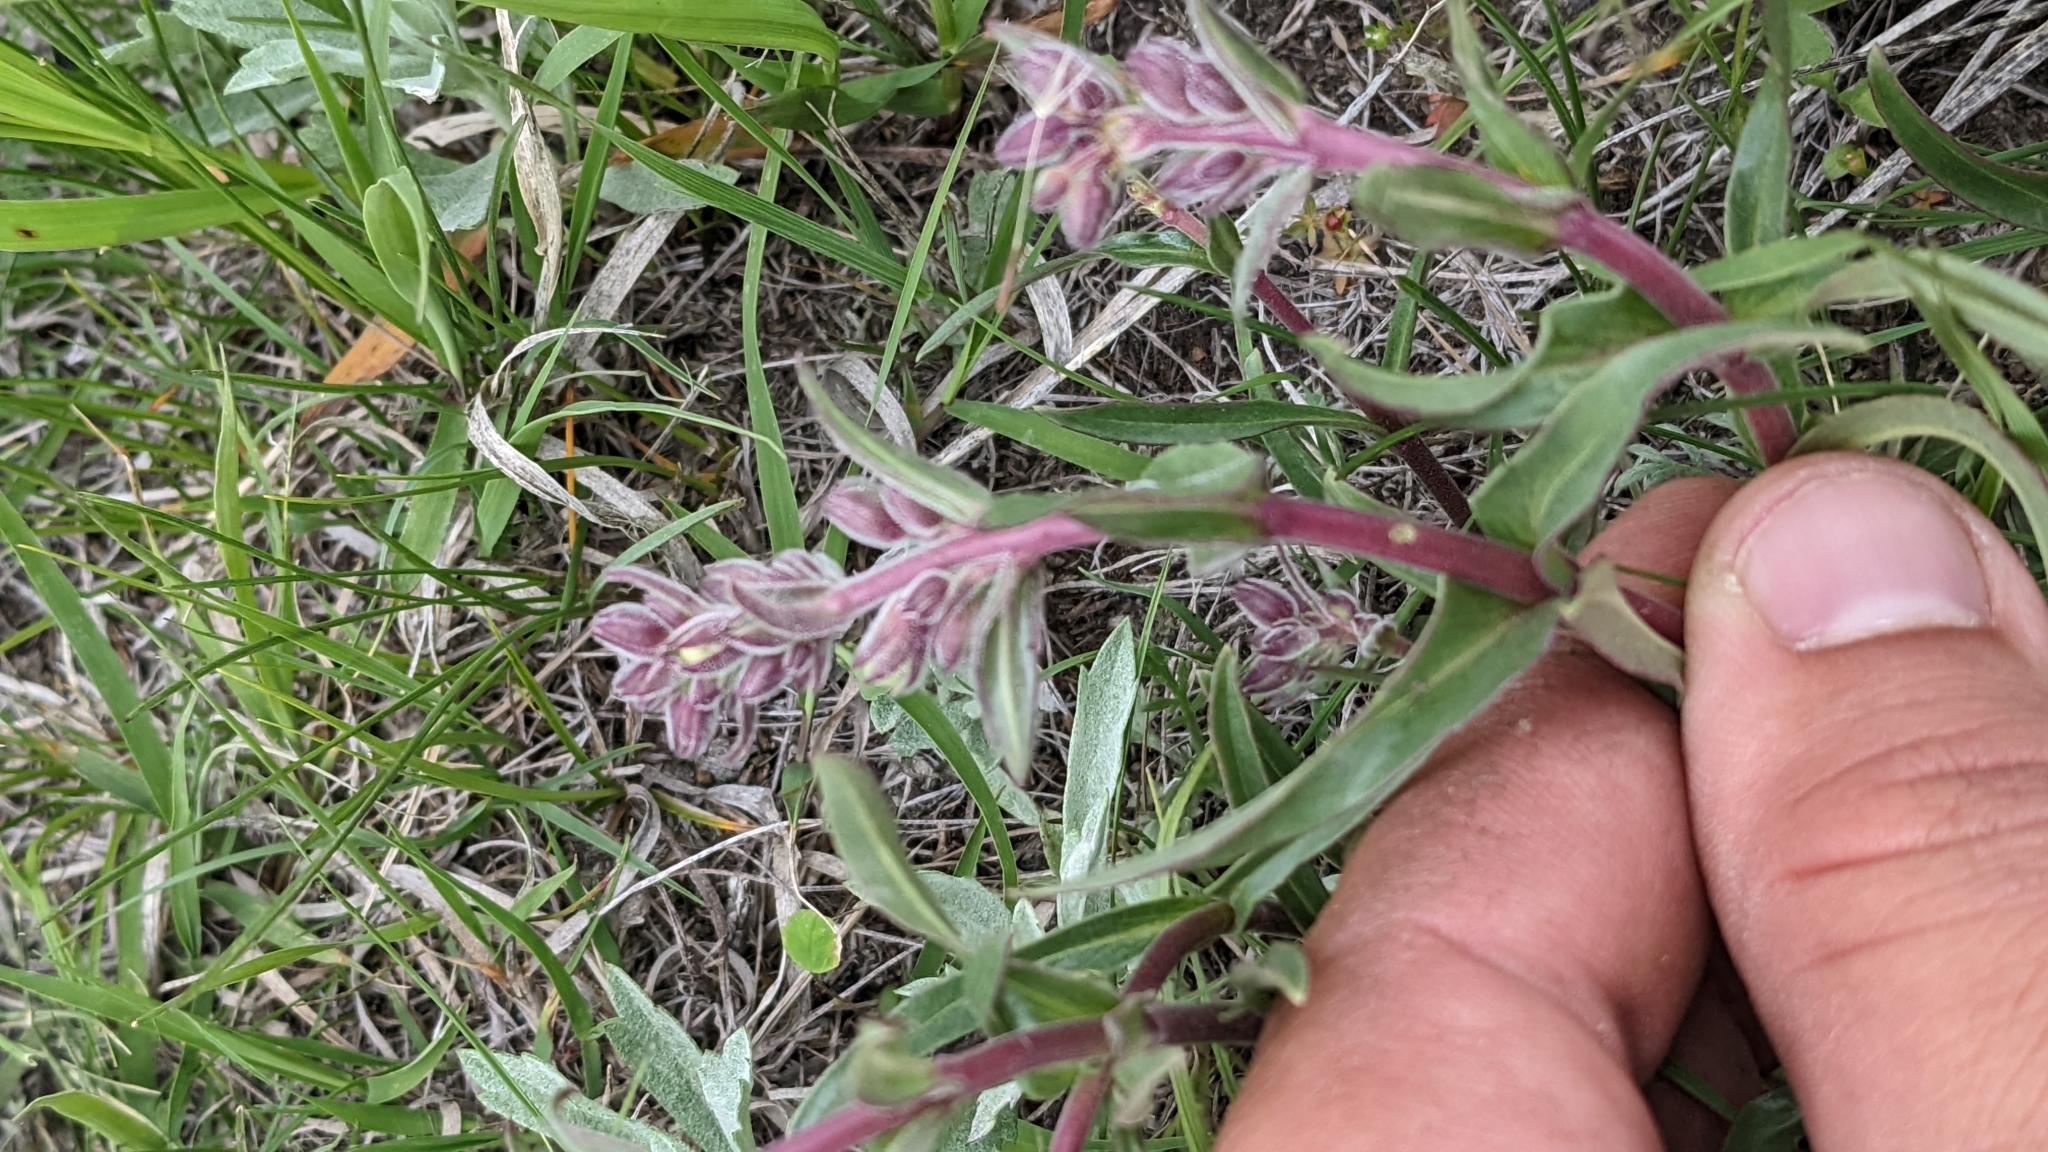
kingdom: Plantae
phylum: Tracheophyta
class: Magnoliopsida
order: Lamiales
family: Plantaginaceae
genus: Penstemon
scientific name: Penstemon albidus
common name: White beardtongue
